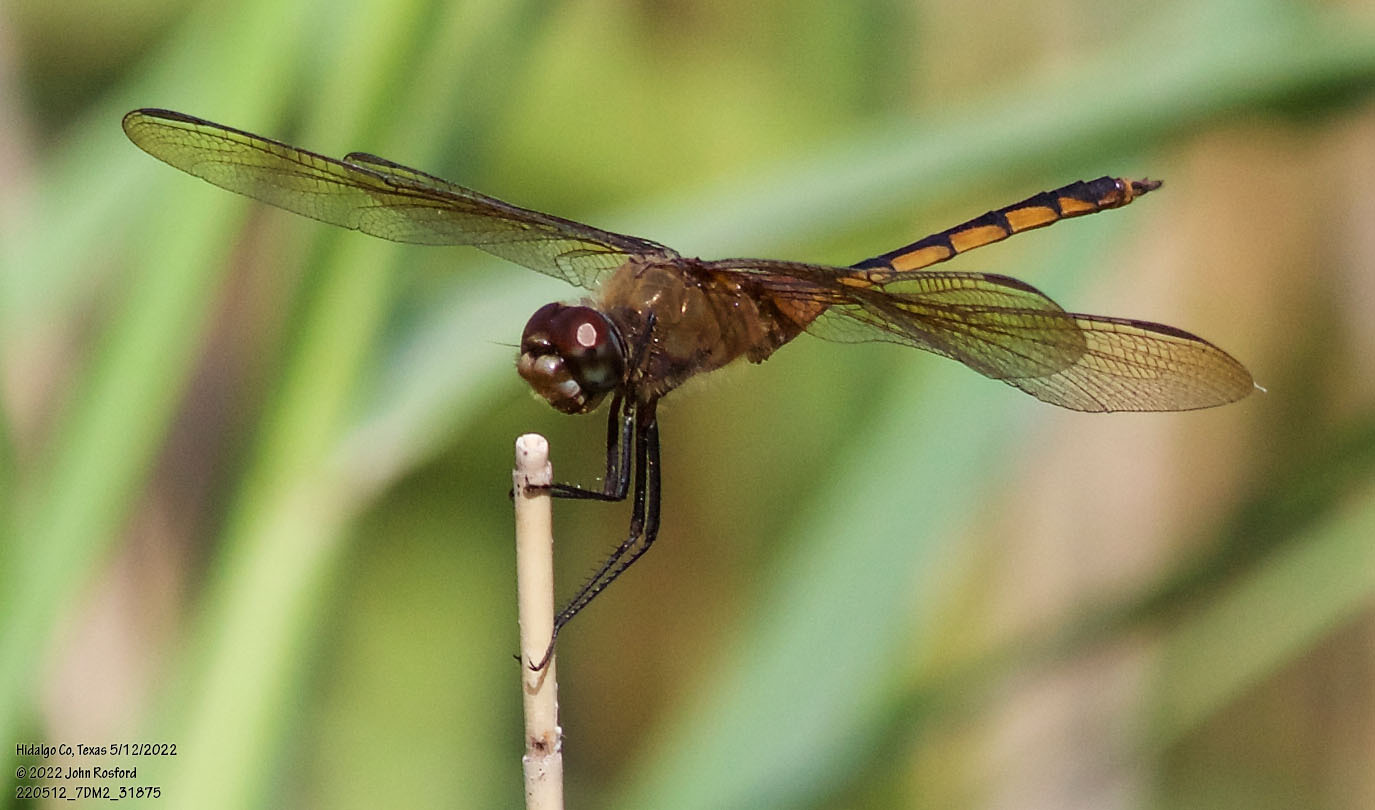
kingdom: Animalia
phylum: Arthropoda
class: Insecta
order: Odonata
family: Libellulidae
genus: Brachymesia
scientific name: Brachymesia herbida
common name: Tawny pennant
